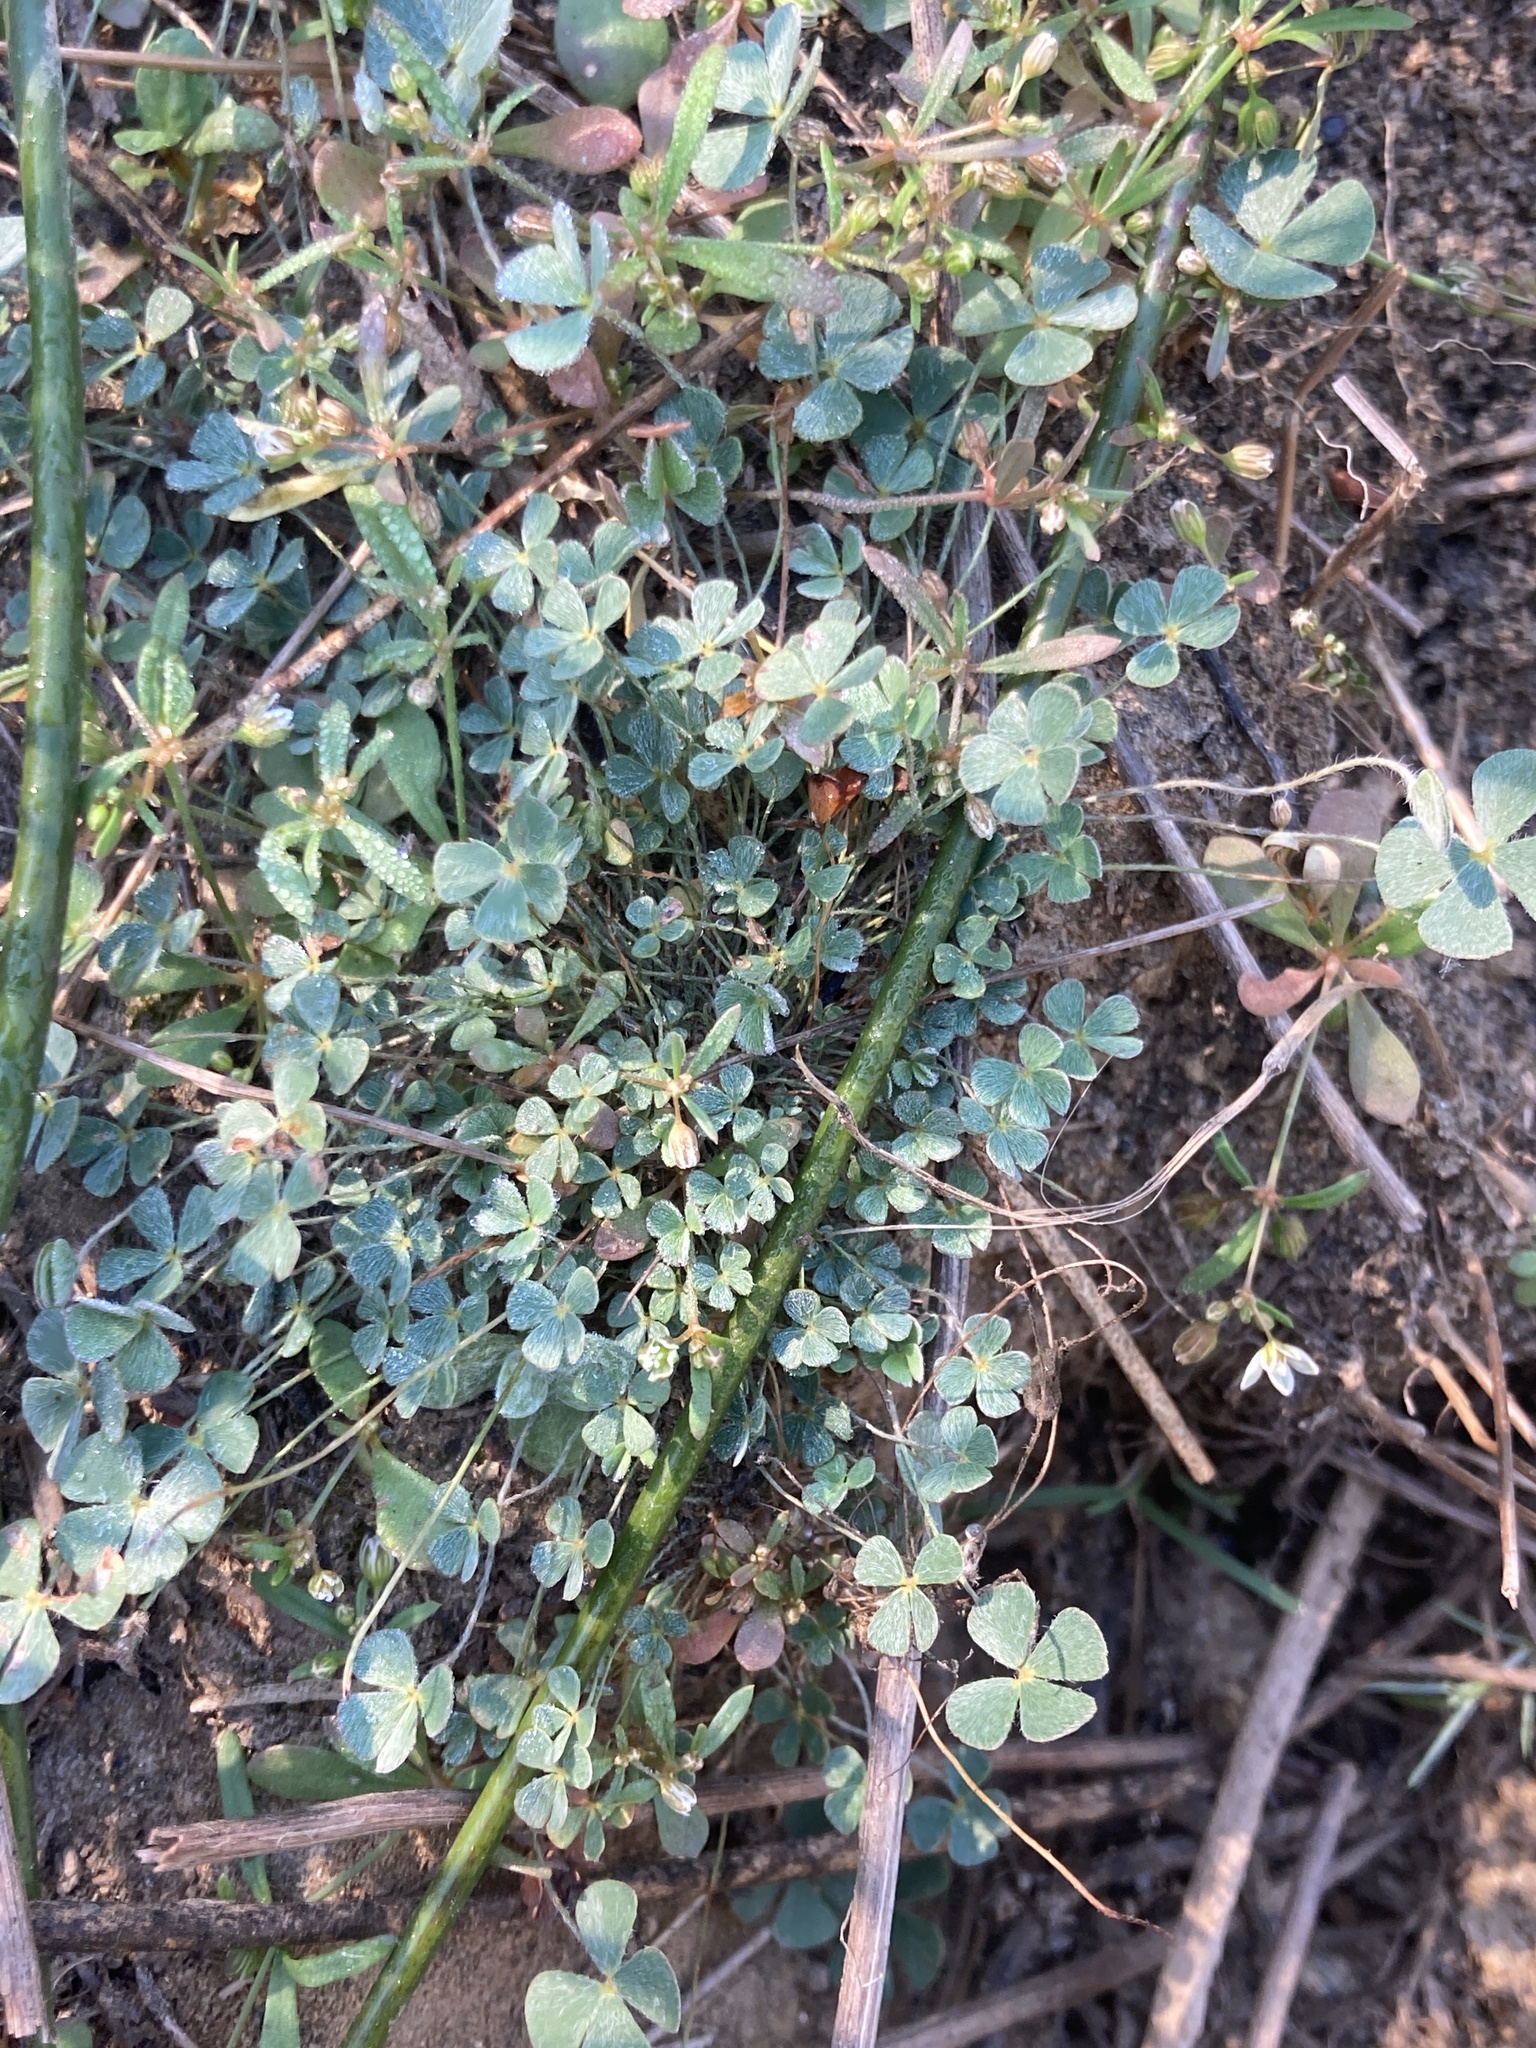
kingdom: Plantae
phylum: Tracheophyta
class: Polypodiopsida
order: Salviniales
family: Marsileaceae
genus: Marsilea
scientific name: Marsilea vestita
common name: Hooked-pepperwort
